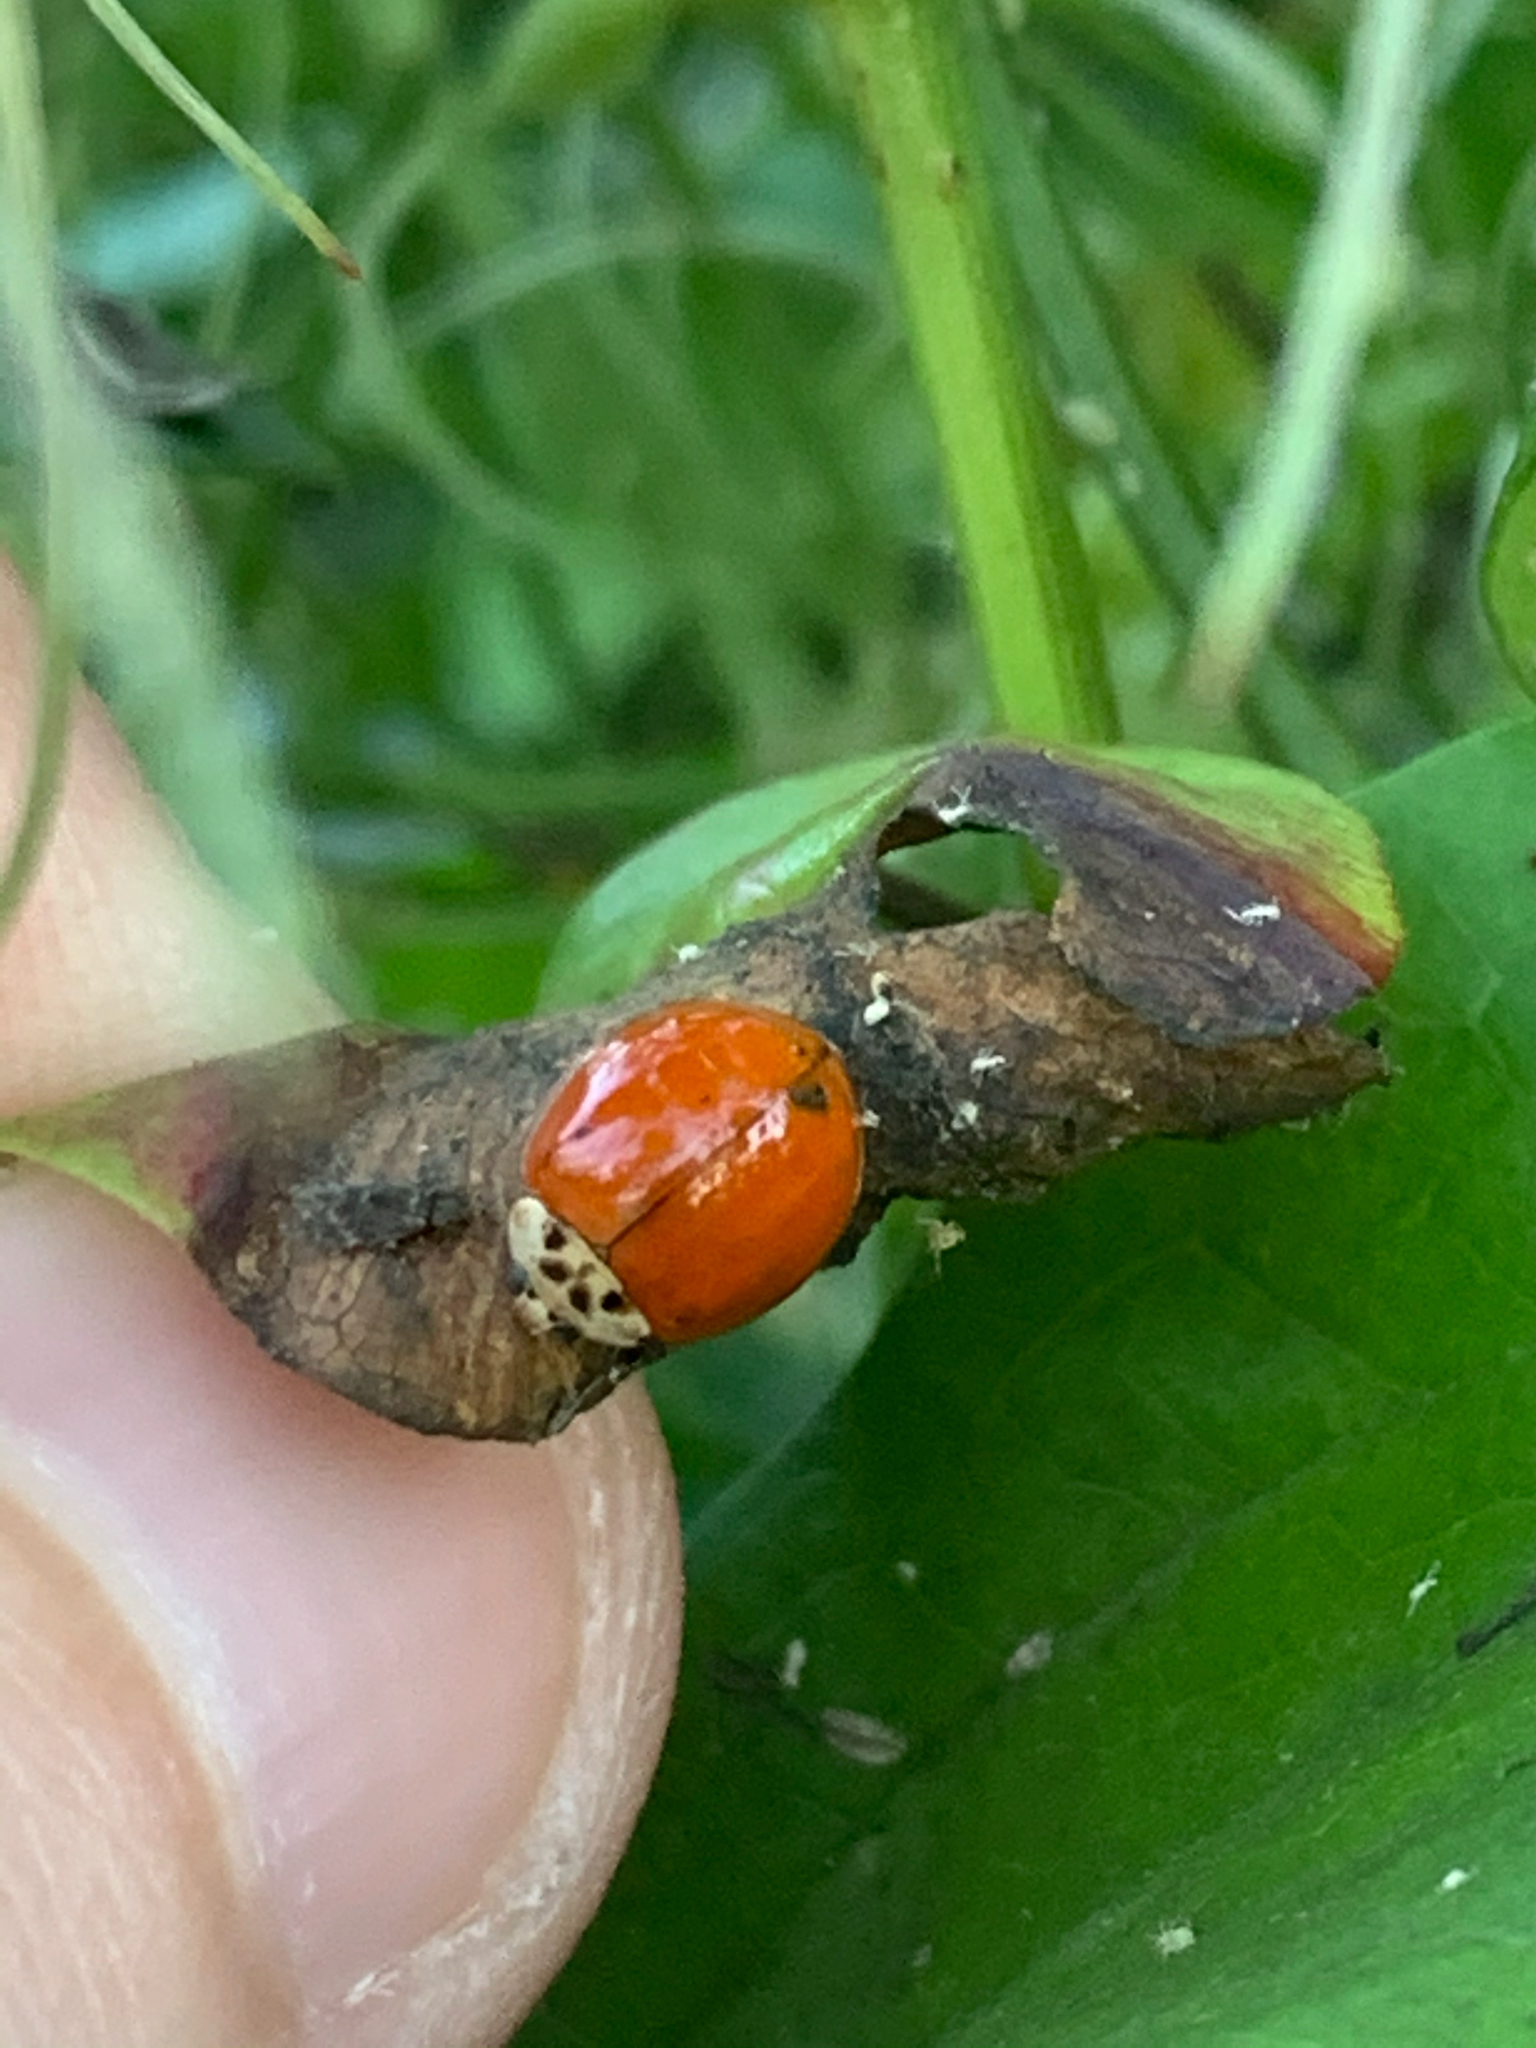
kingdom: Animalia
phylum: Arthropoda
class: Insecta
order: Coleoptera
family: Coccinellidae
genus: Harmonia
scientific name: Harmonia axyridis
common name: Harlequin ladybird
